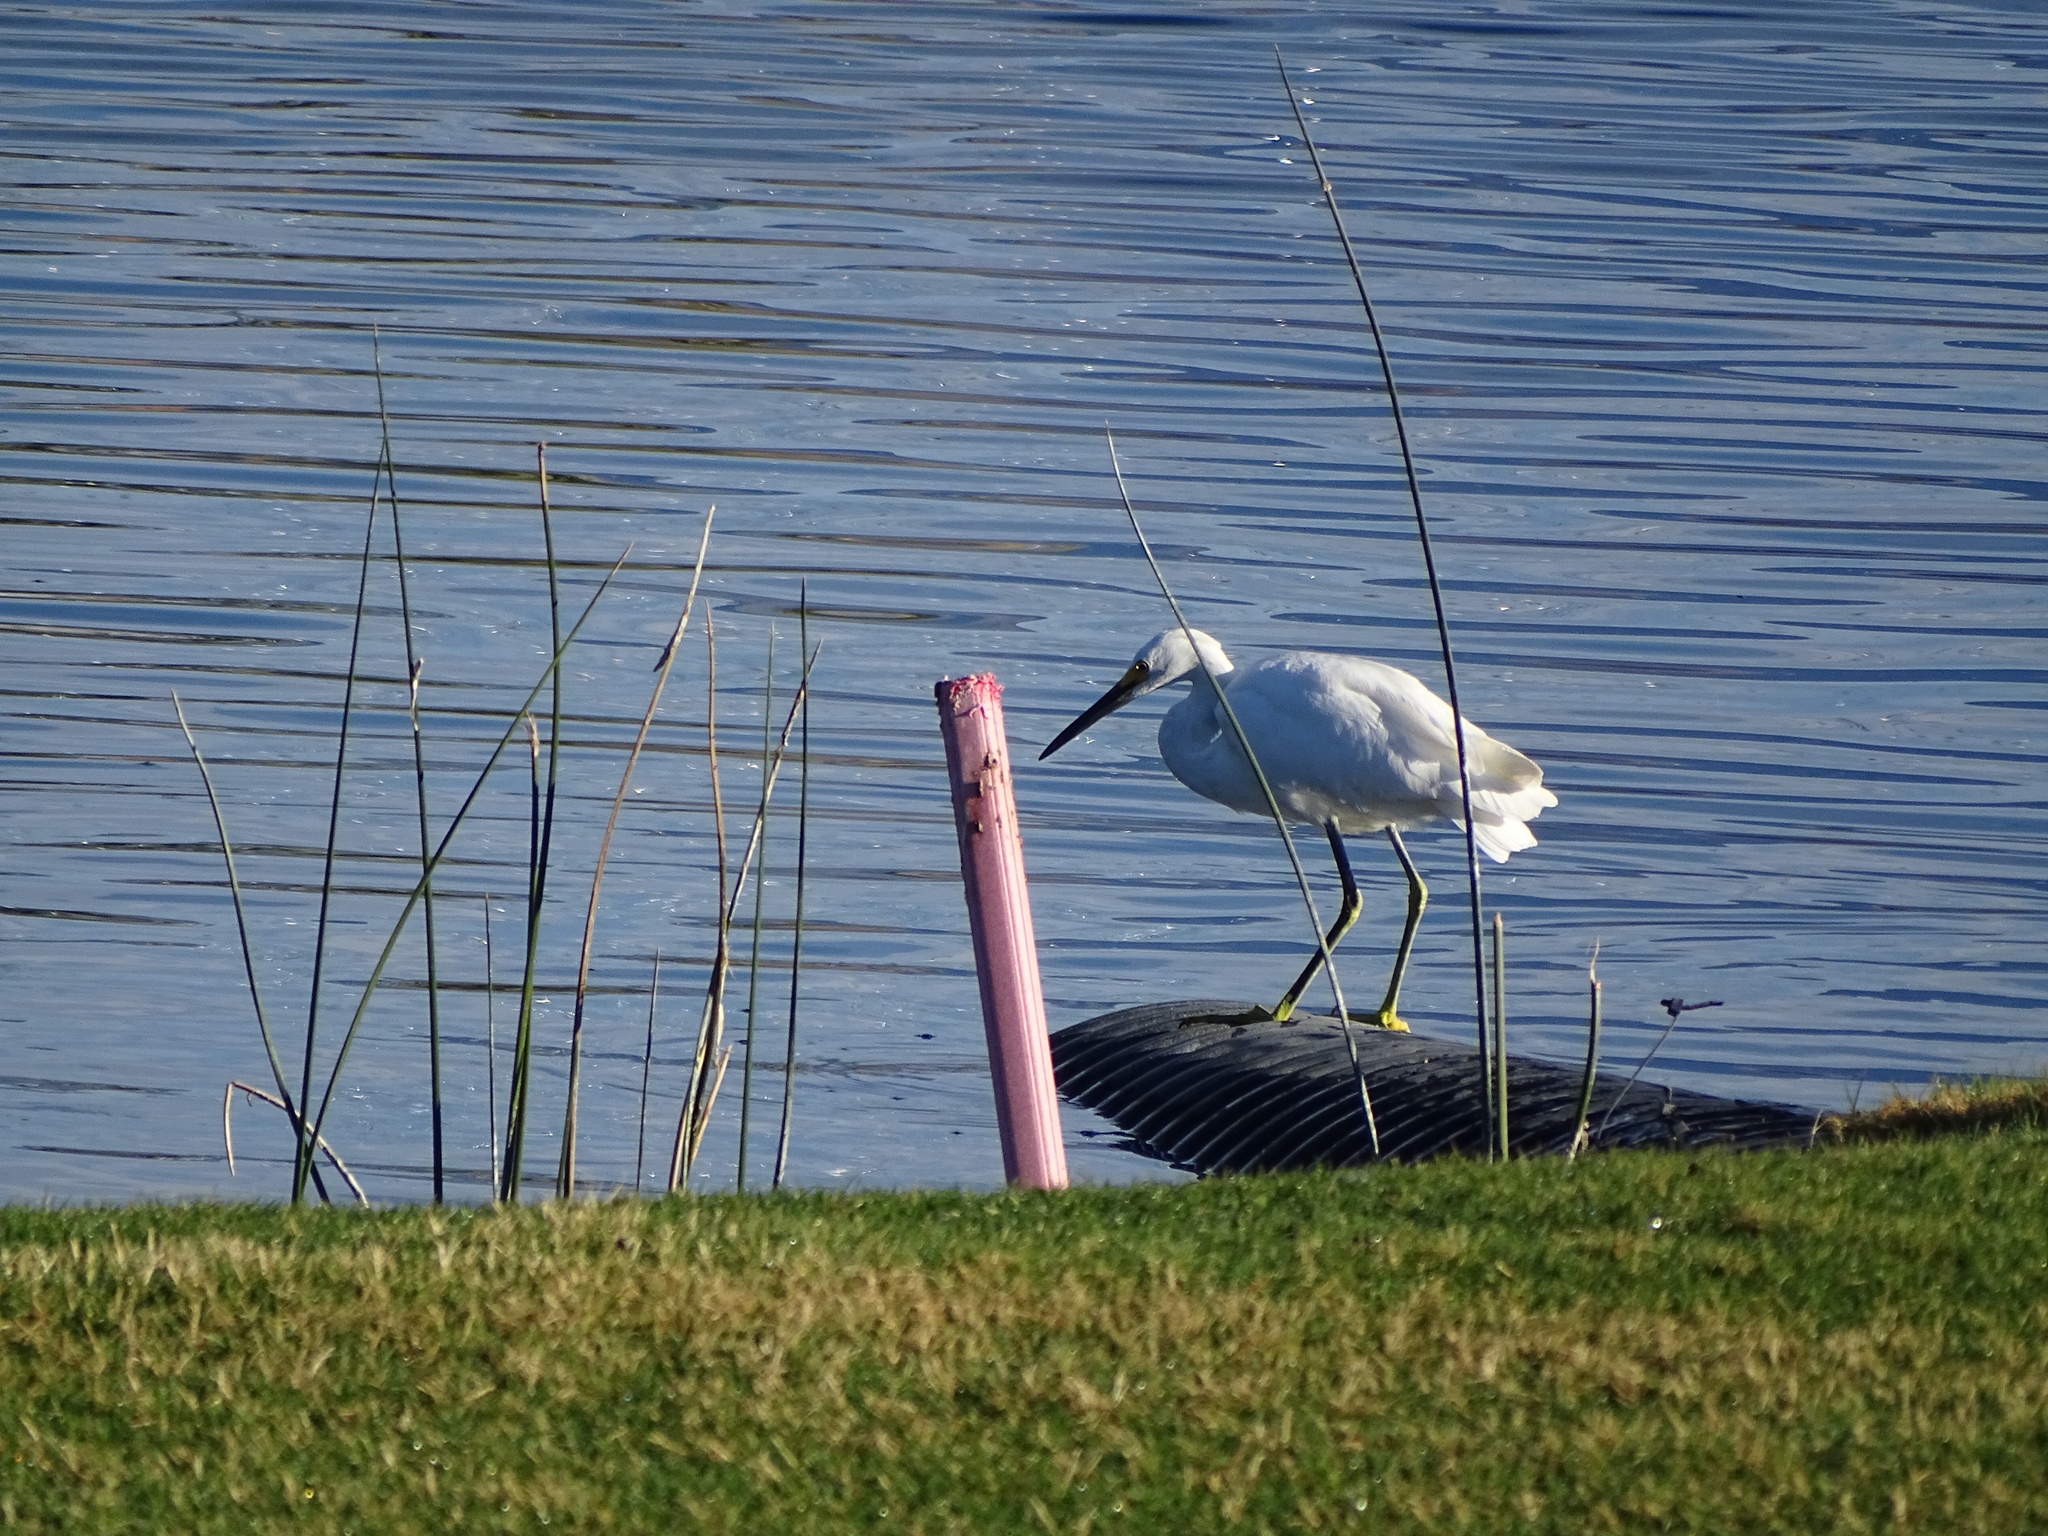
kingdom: Animalia
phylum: Chordata
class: Aves
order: Pelecaniformes
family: Ardeidae
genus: Egretta
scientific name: Egretta thula
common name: Snowy egret
